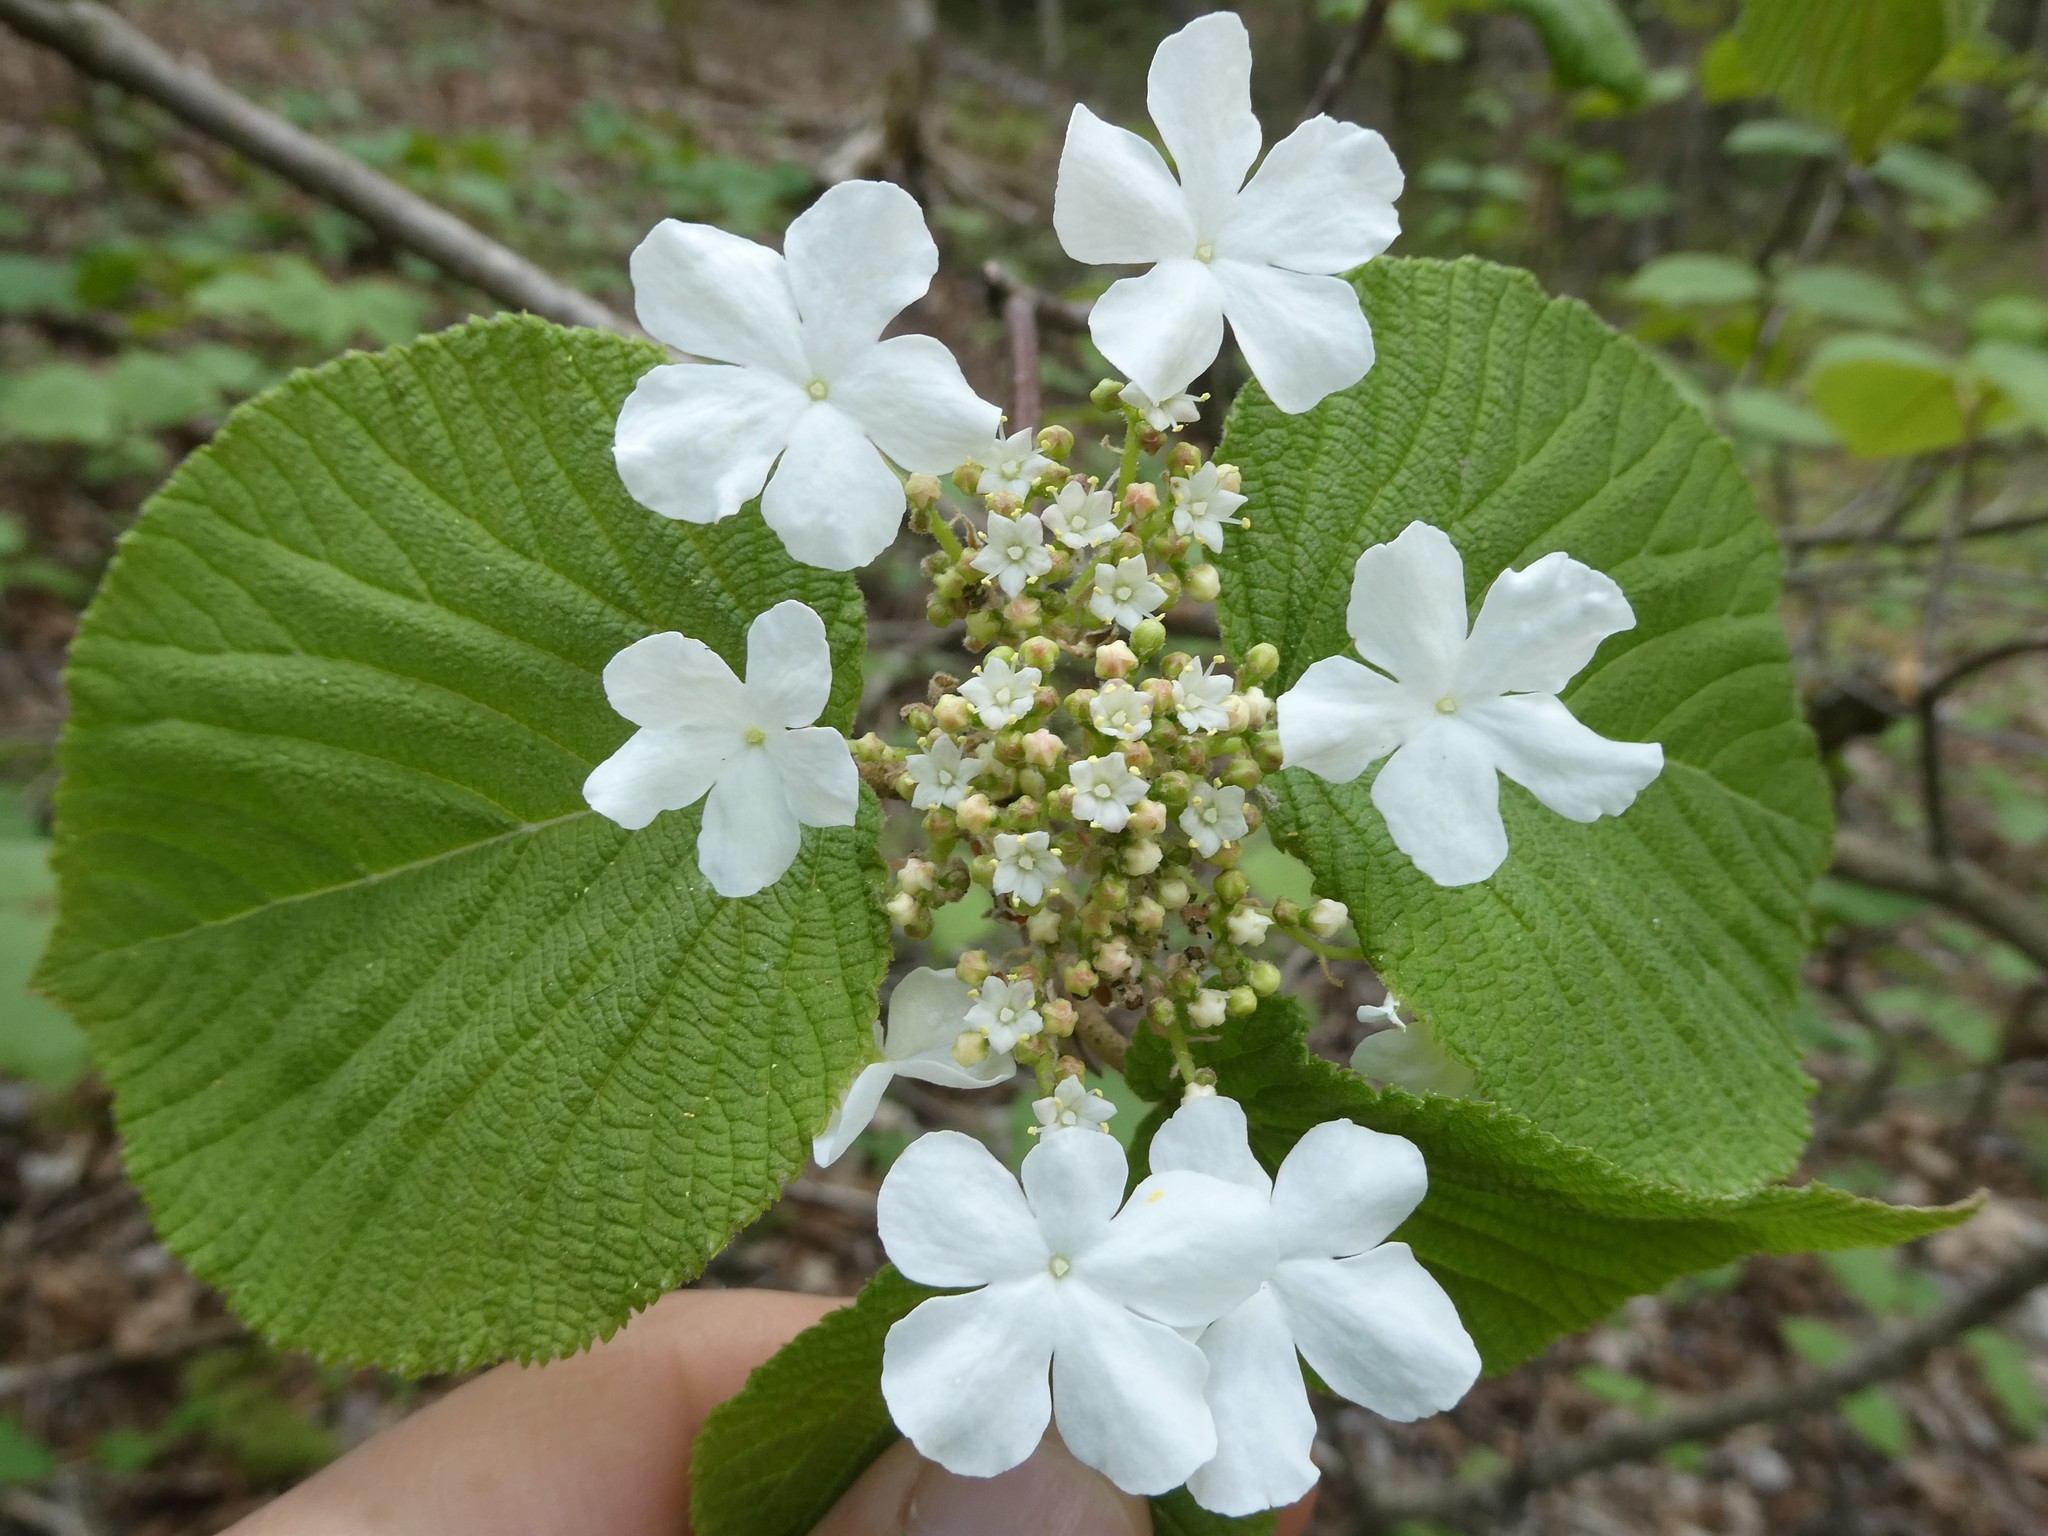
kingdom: Plantae
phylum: Tracheophyta
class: Magnoliopsida
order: Dipsacales
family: Viburnaceae
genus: Viburnum
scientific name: Viburnum lantanoides
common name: Hobblebush
